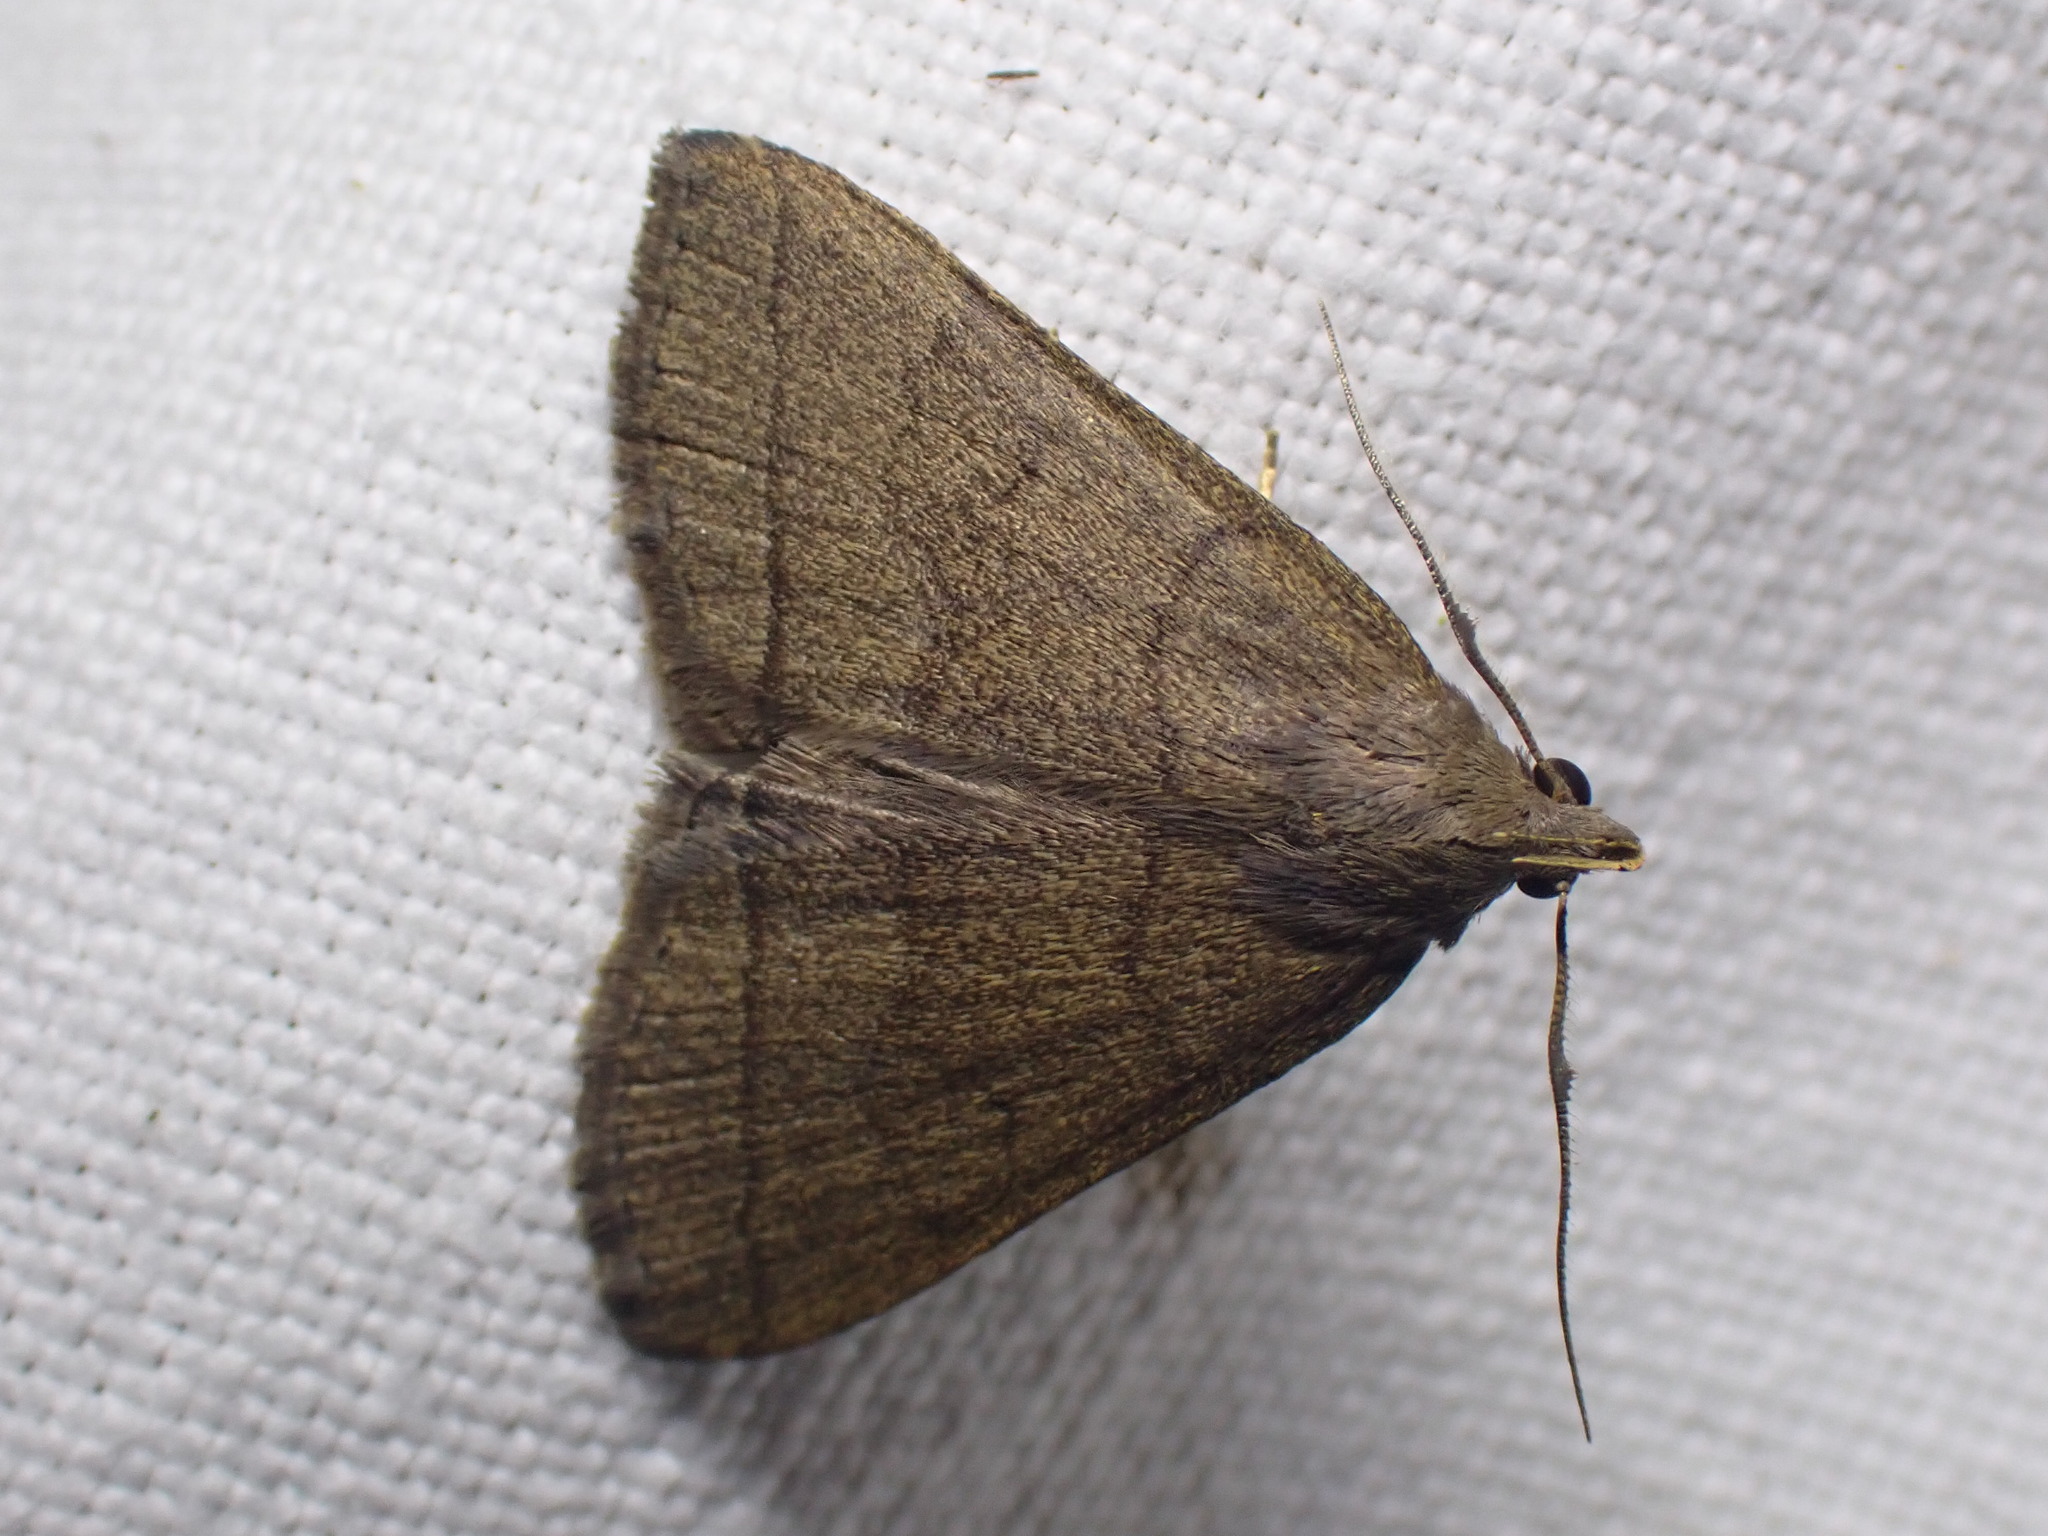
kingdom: Animalia
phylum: Arthropoda
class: Insecta
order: Lepidoptera
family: Erebidae
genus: Herminia
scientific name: Herminia tarsipennalis
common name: Fan-foot
